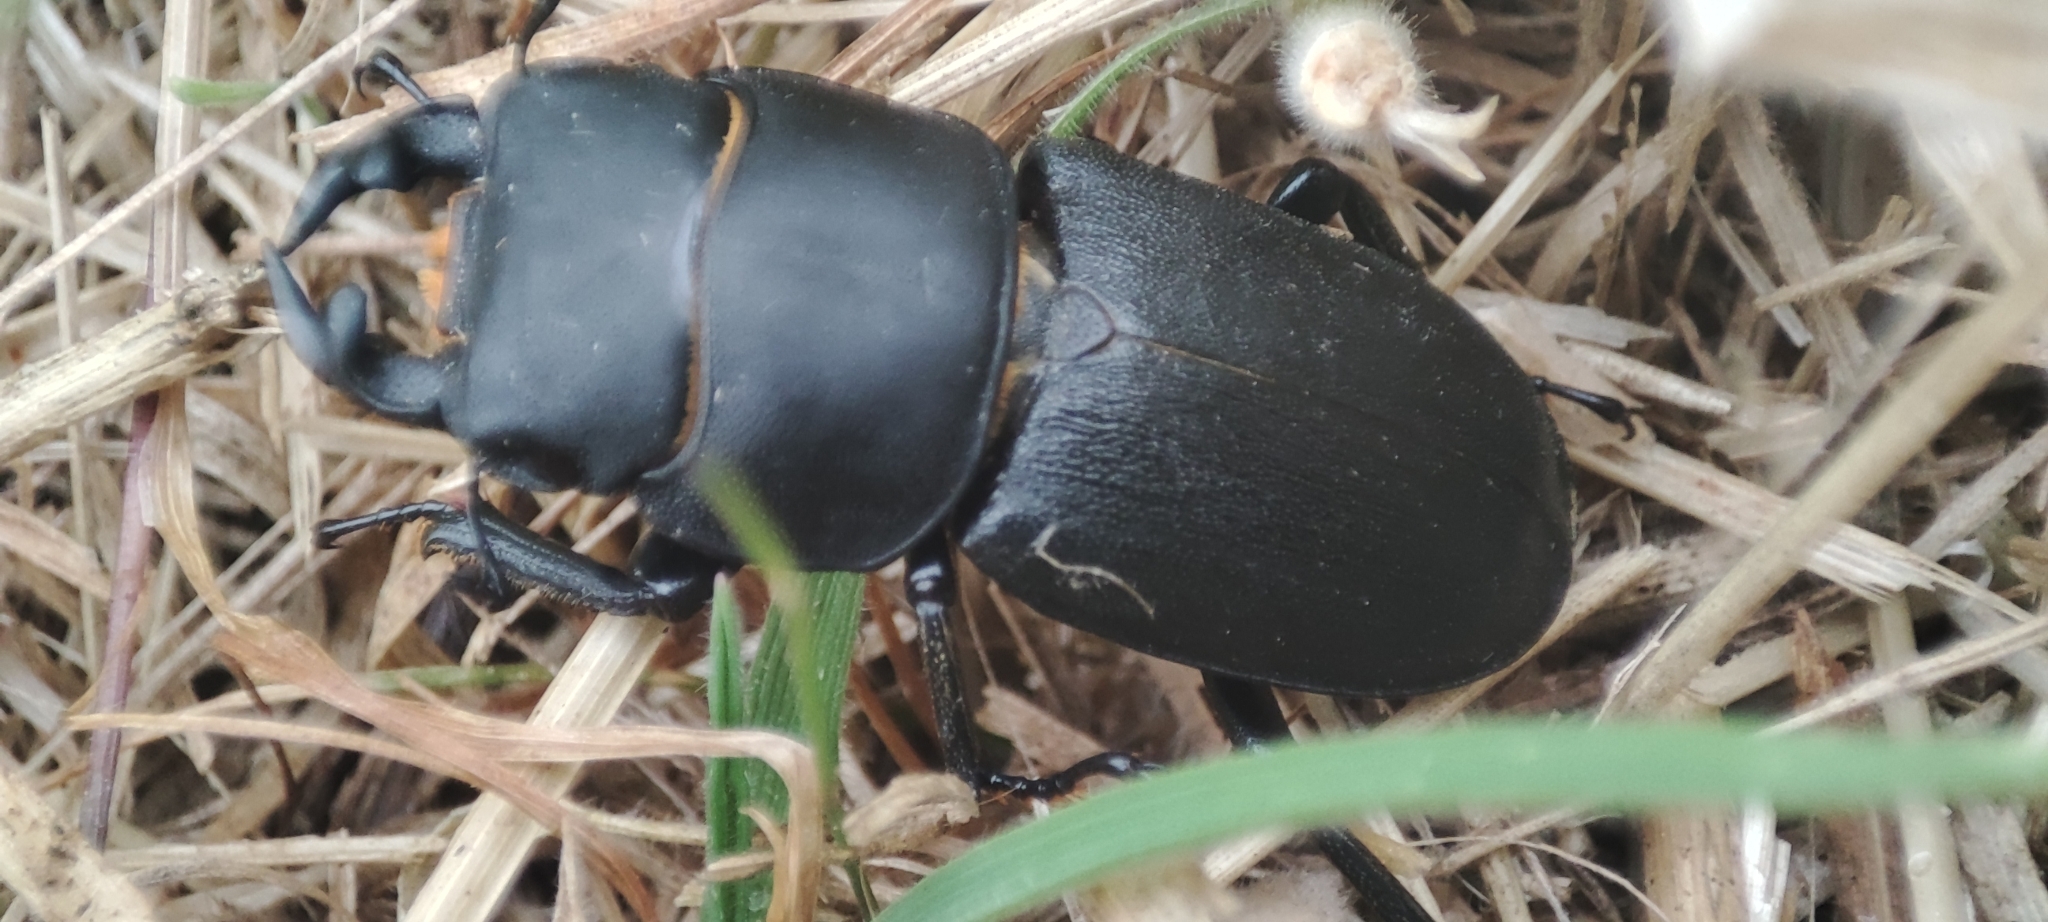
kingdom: Animalia
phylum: Arthropoda
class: Insecta
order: Coleoptera
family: Lucanidae
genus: Dorcus
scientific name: Dorcus parallelipipedus
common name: Lesser stag beetle
